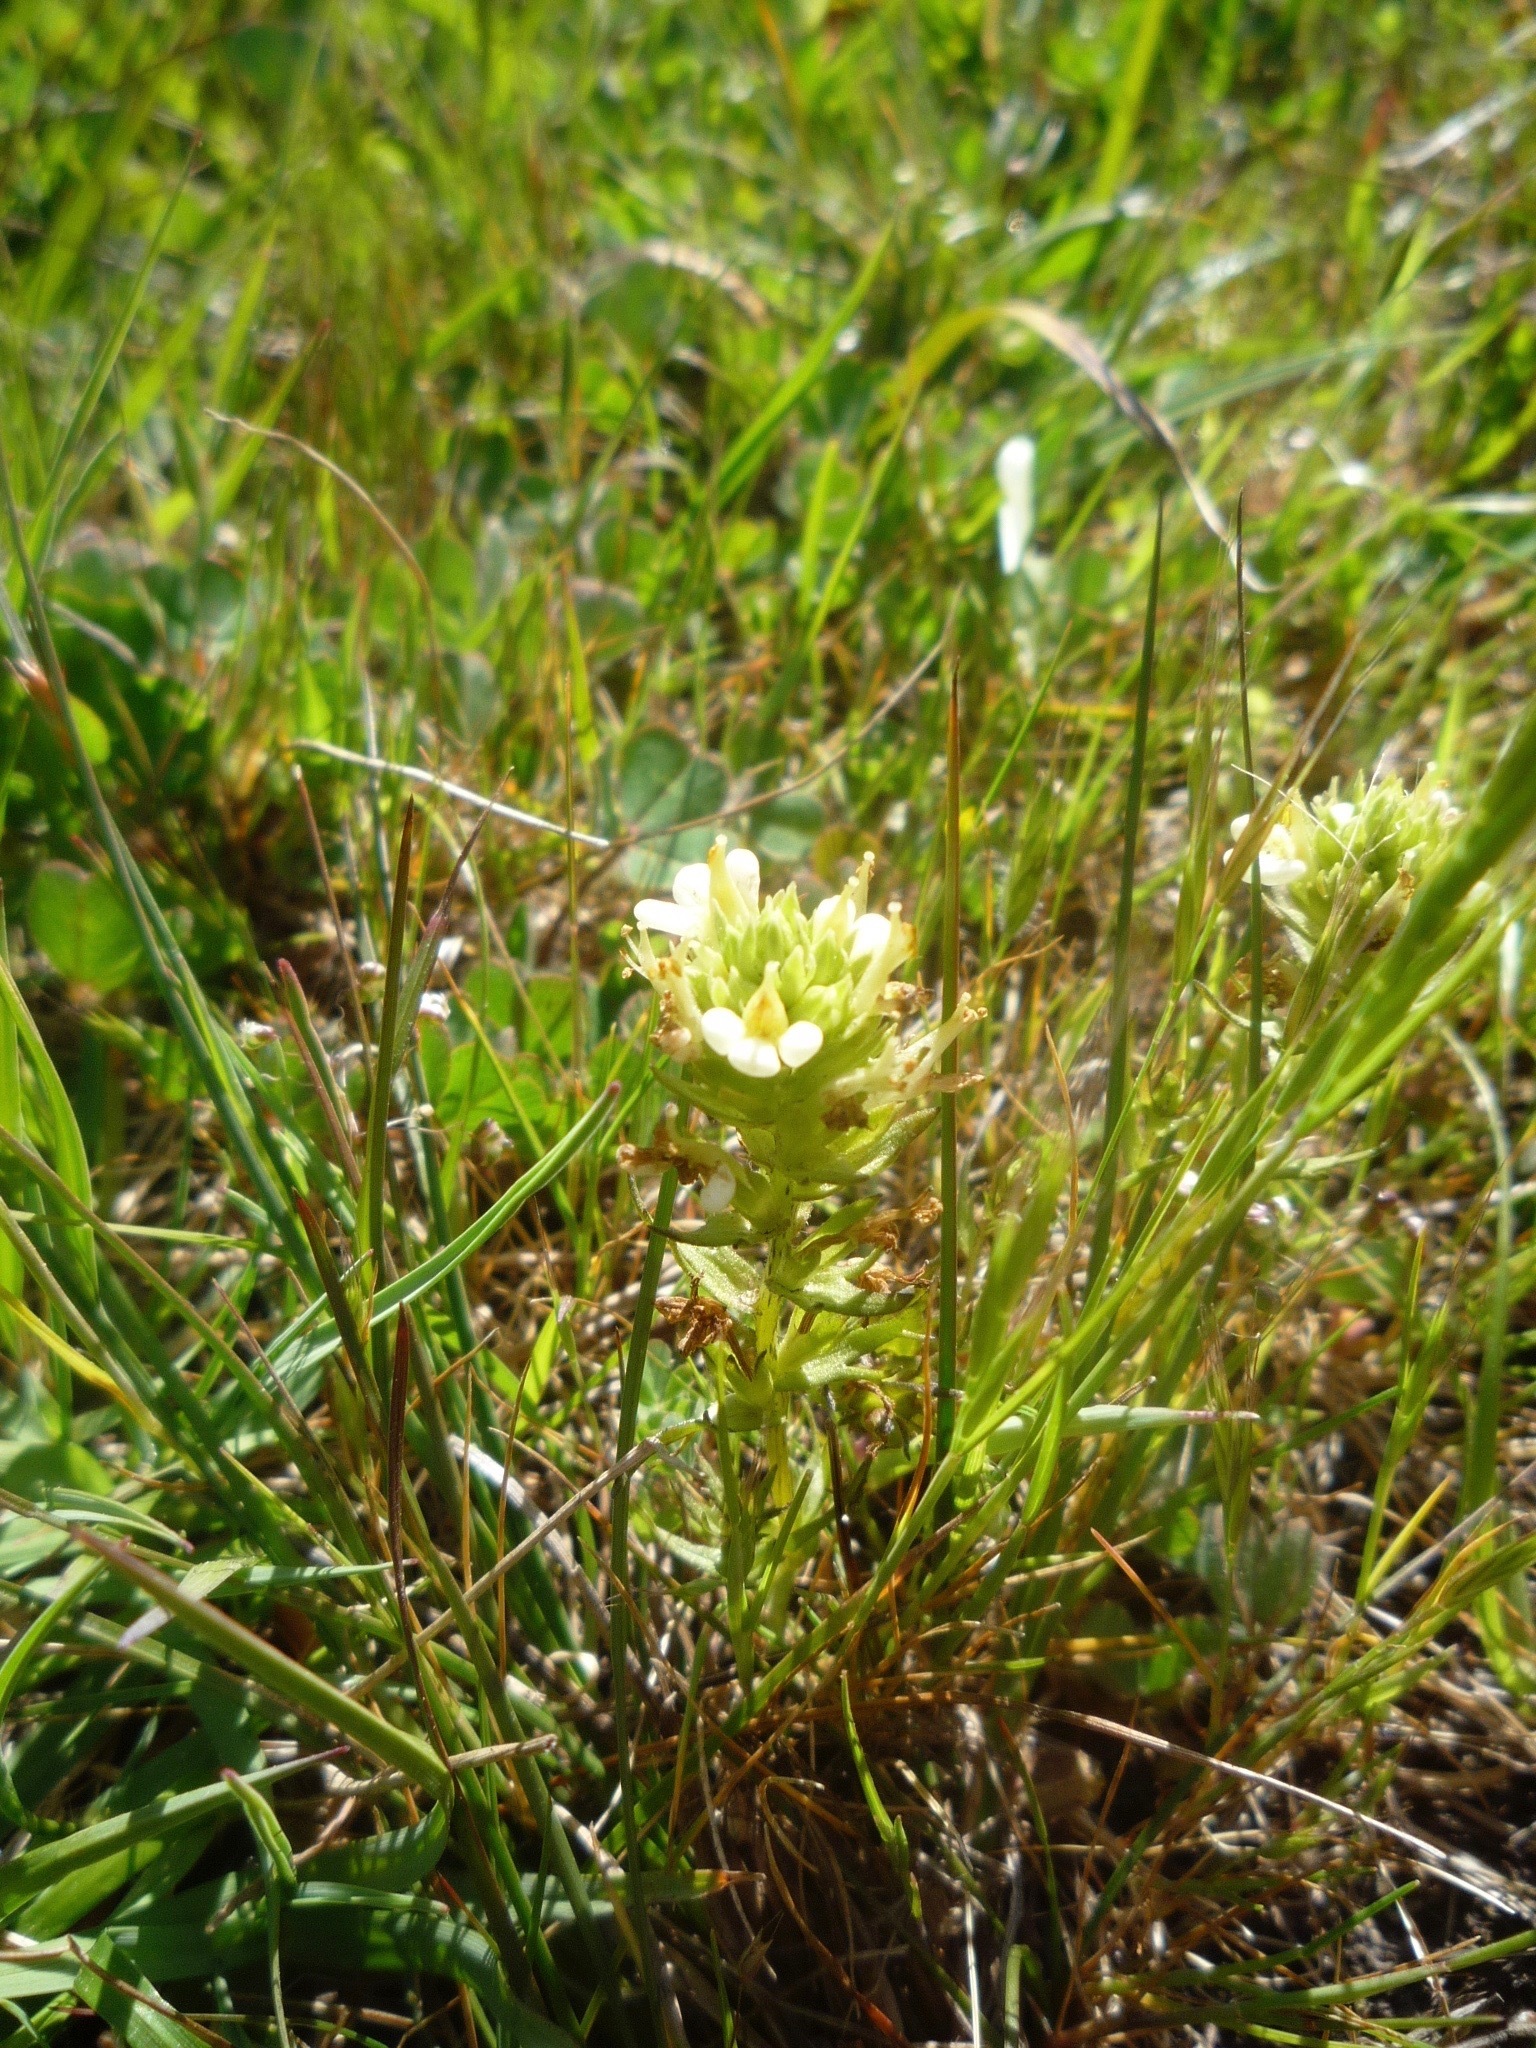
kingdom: Plantae
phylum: Tracheophyta
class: Magnoliopsida
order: Lamiales
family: Orobanchaceae
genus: Triphysaria
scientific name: Triphysaria floribunda
